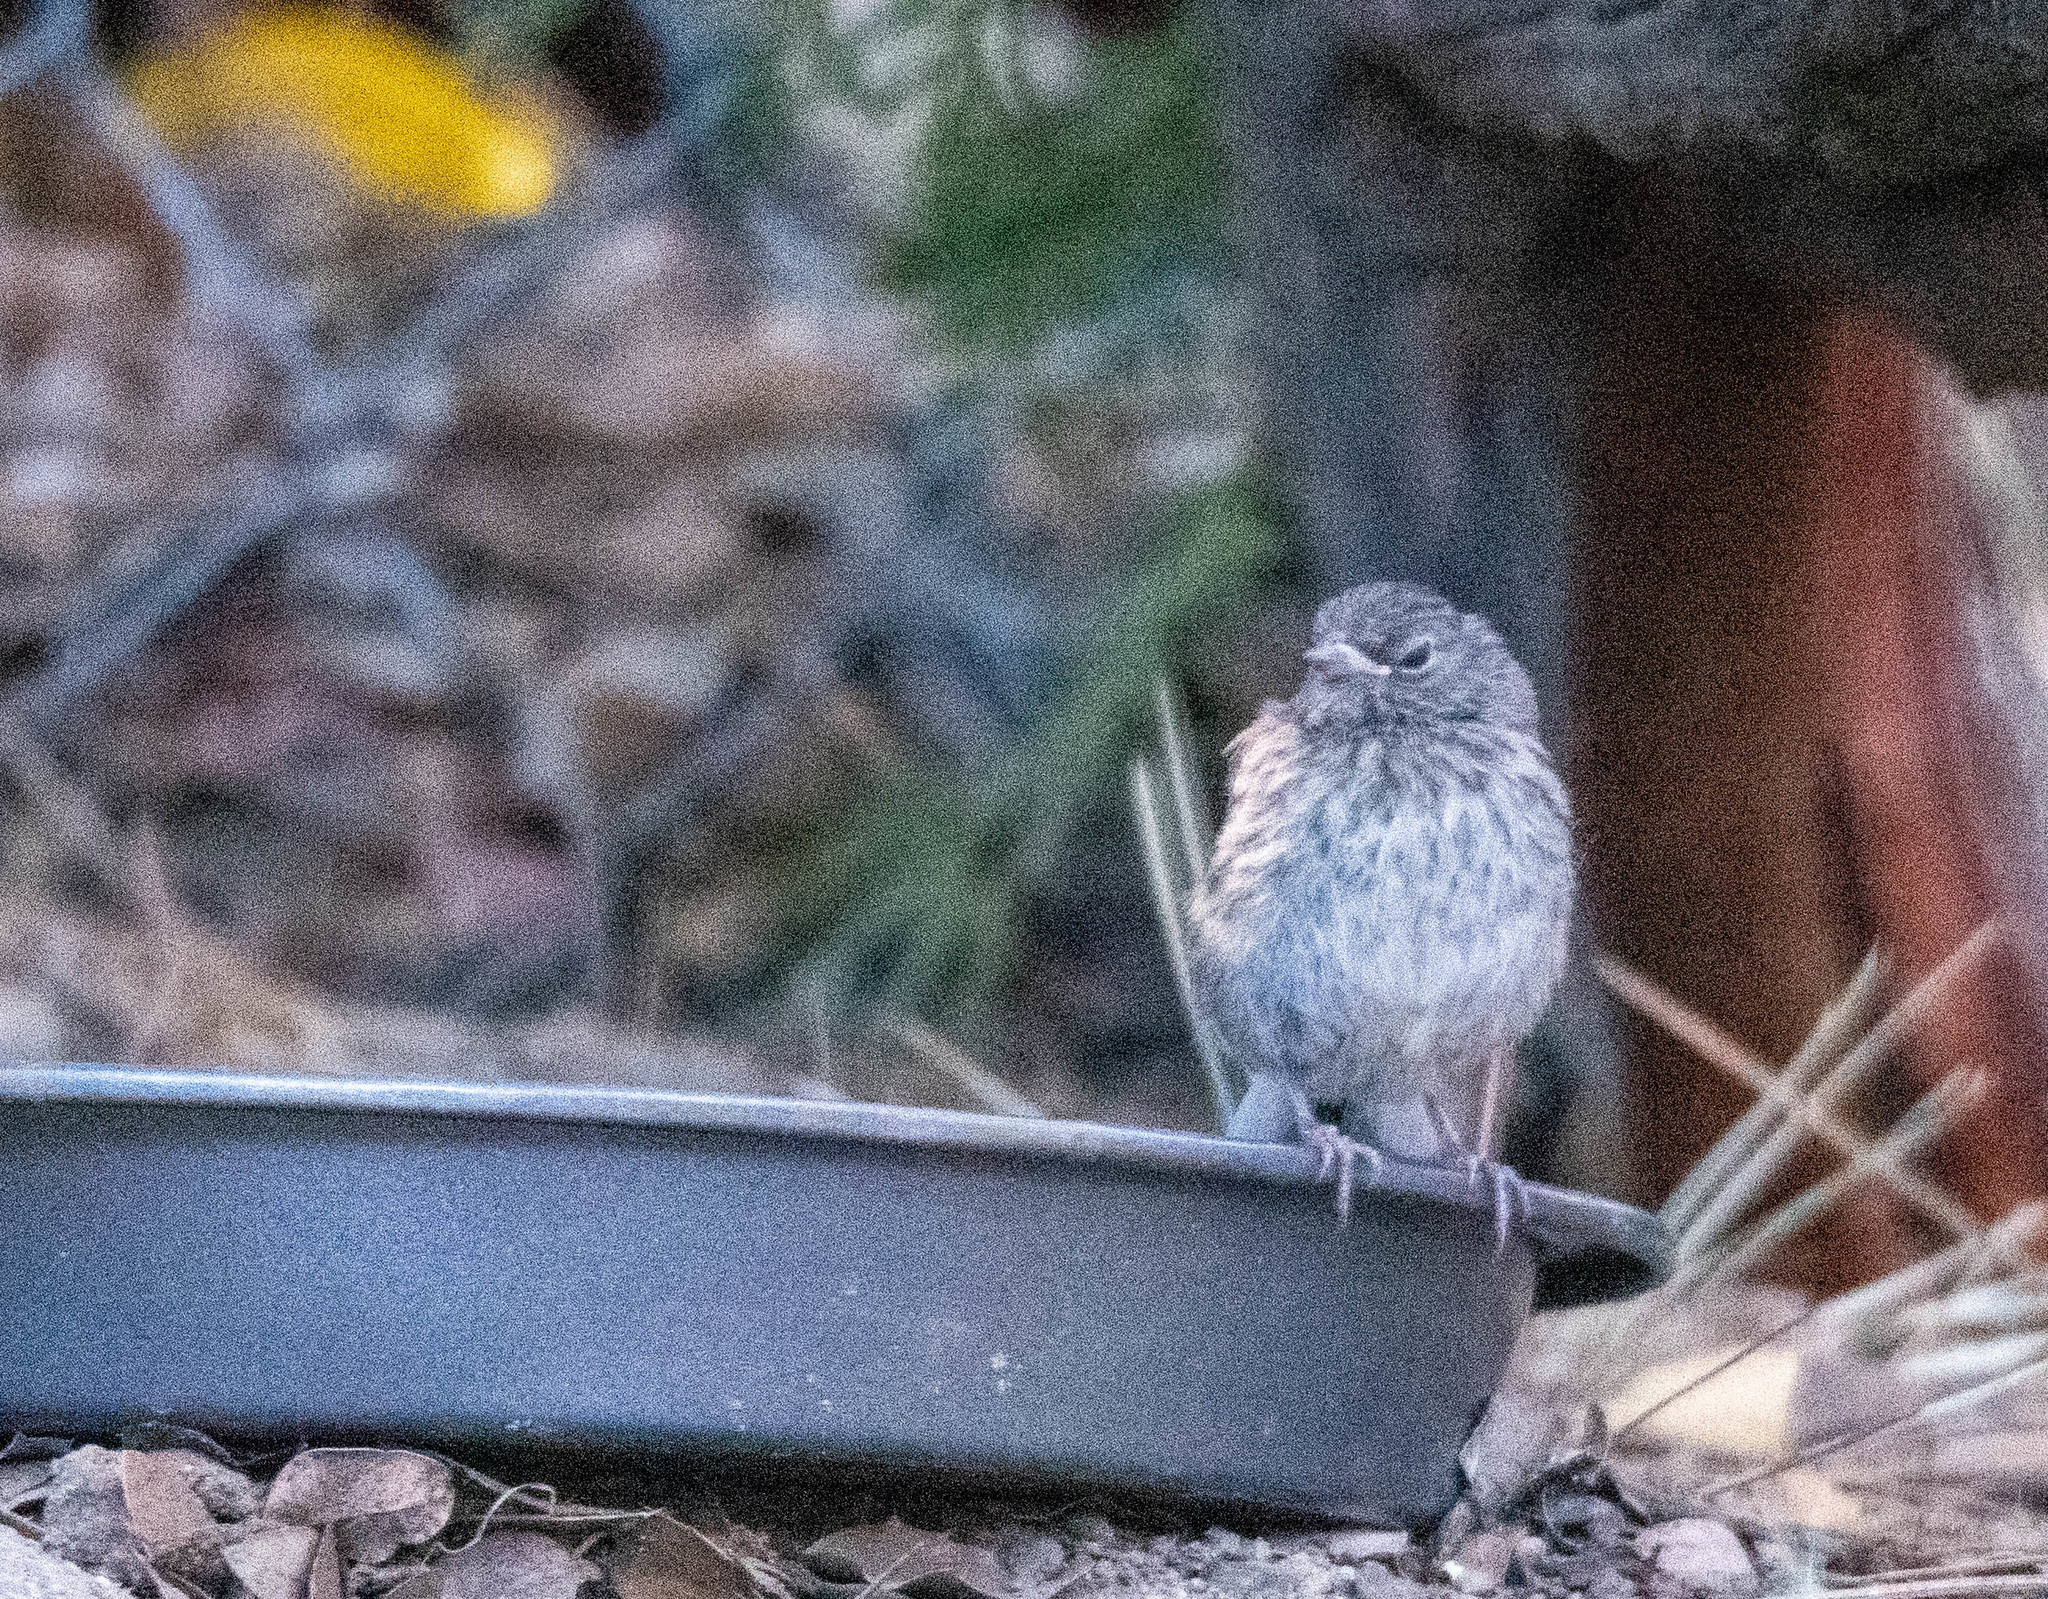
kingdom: Animalia
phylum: Chordata
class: Aves
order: Passeriformes
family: Passerellidae
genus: Junco
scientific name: Junco hyemalis
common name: Dark-eyed junco
